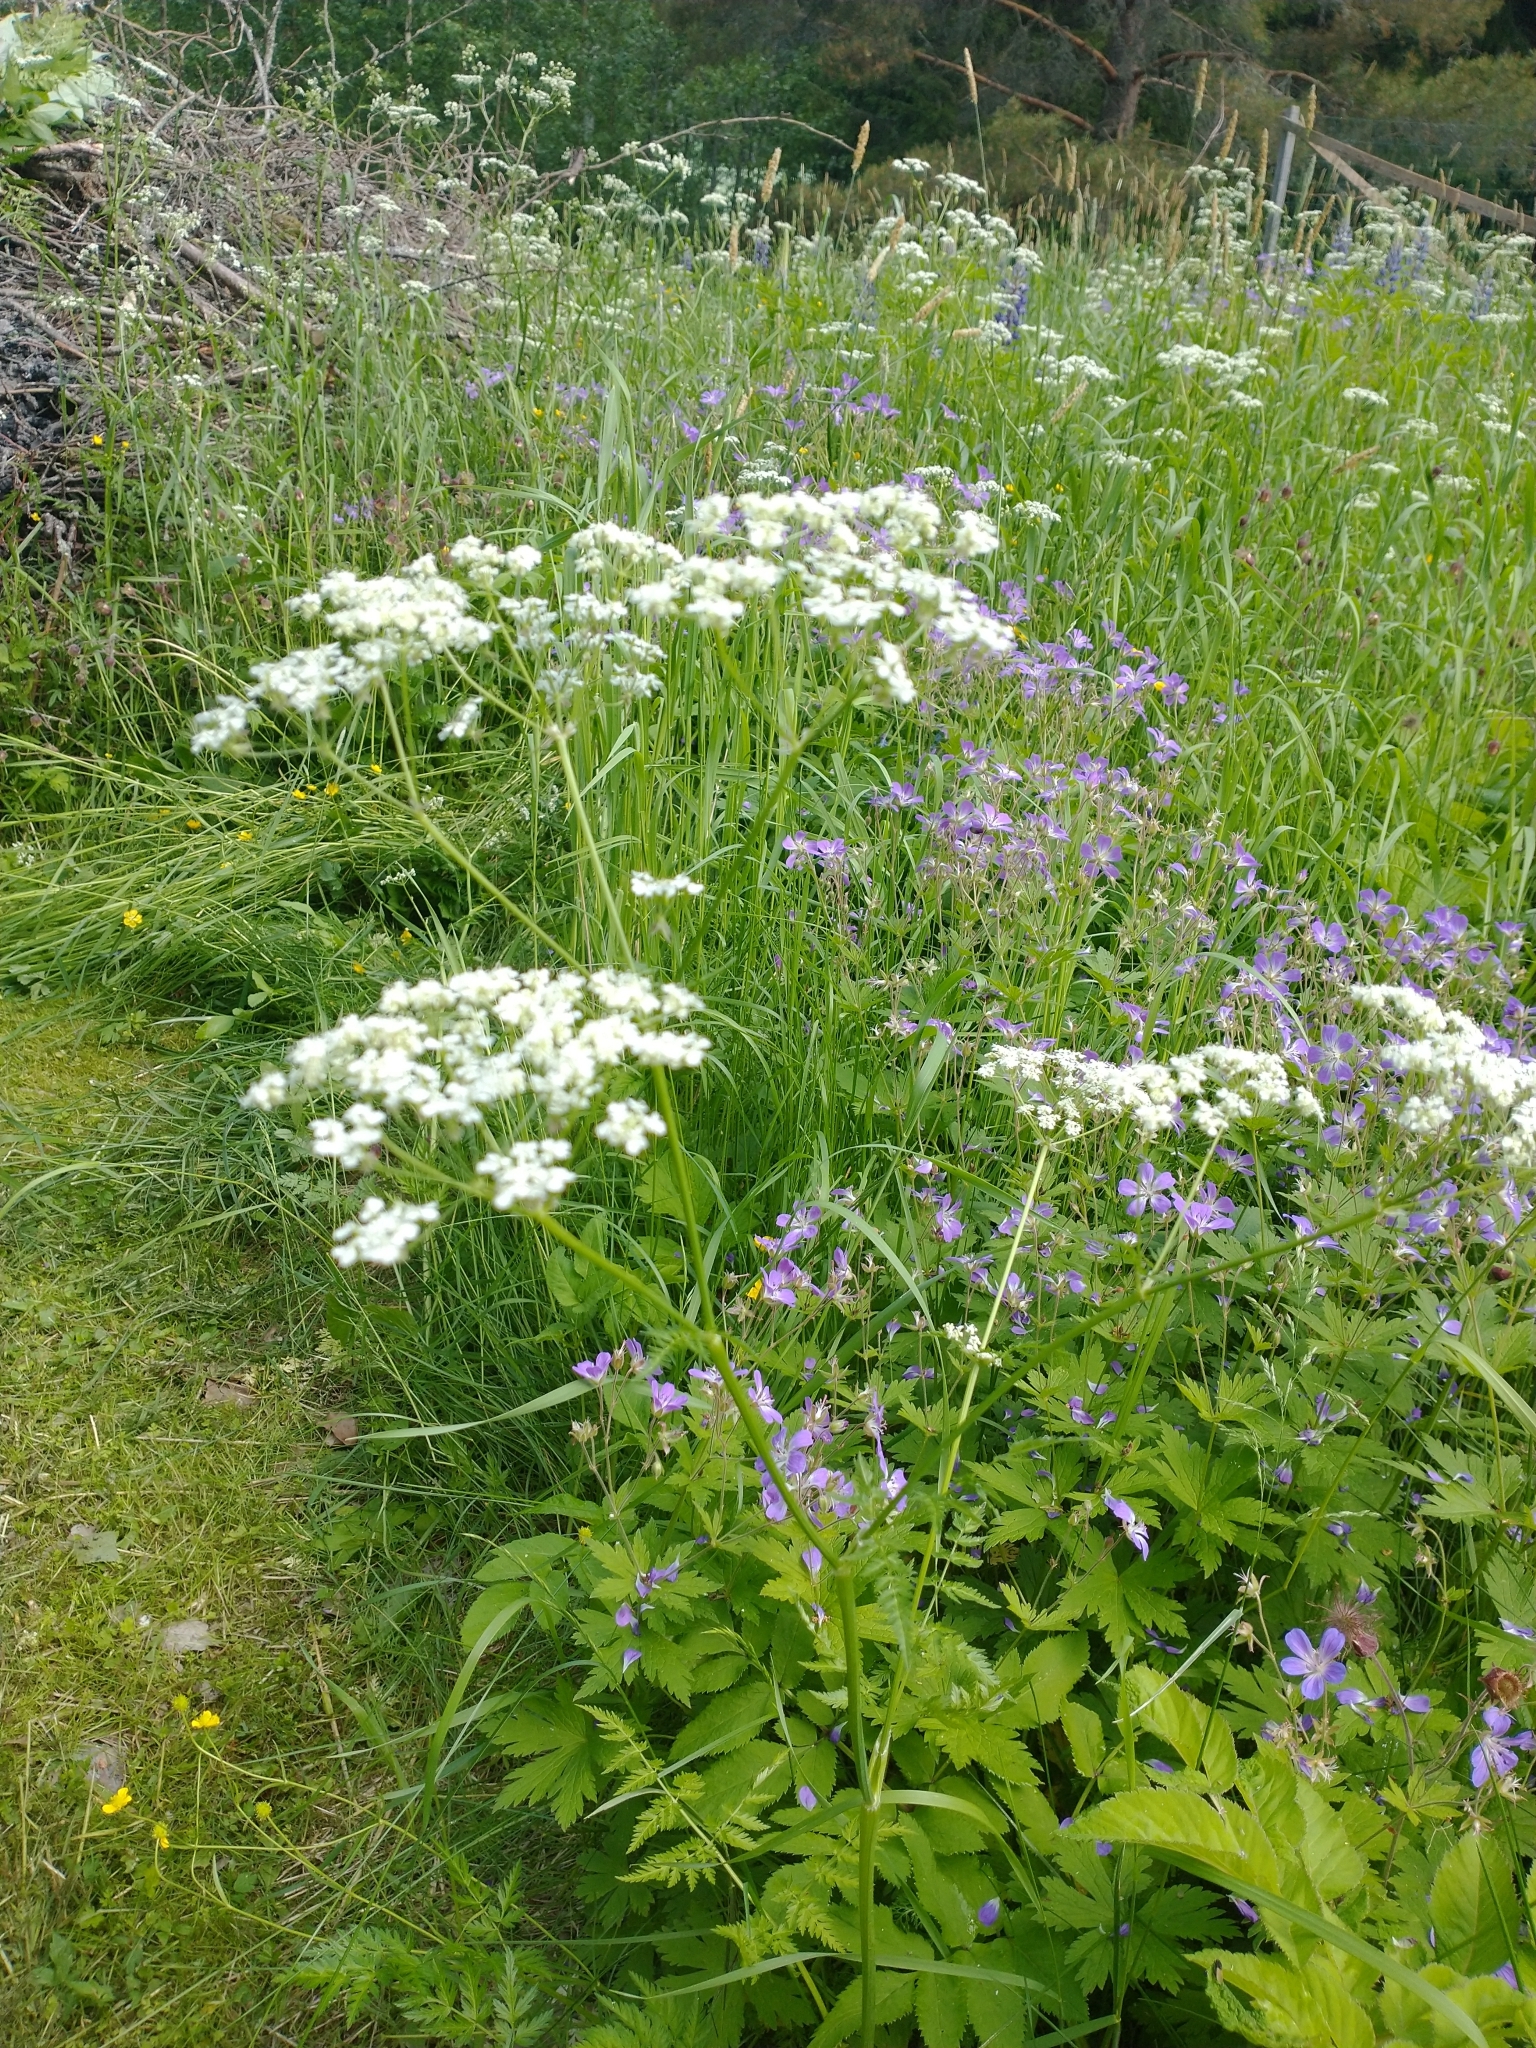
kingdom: Plantae
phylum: Tracheophyta
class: Magnoliopsida
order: Apiales
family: Apiaceae
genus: Anthriscus
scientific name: Anthriscus sylvestris
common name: Cow parsley
